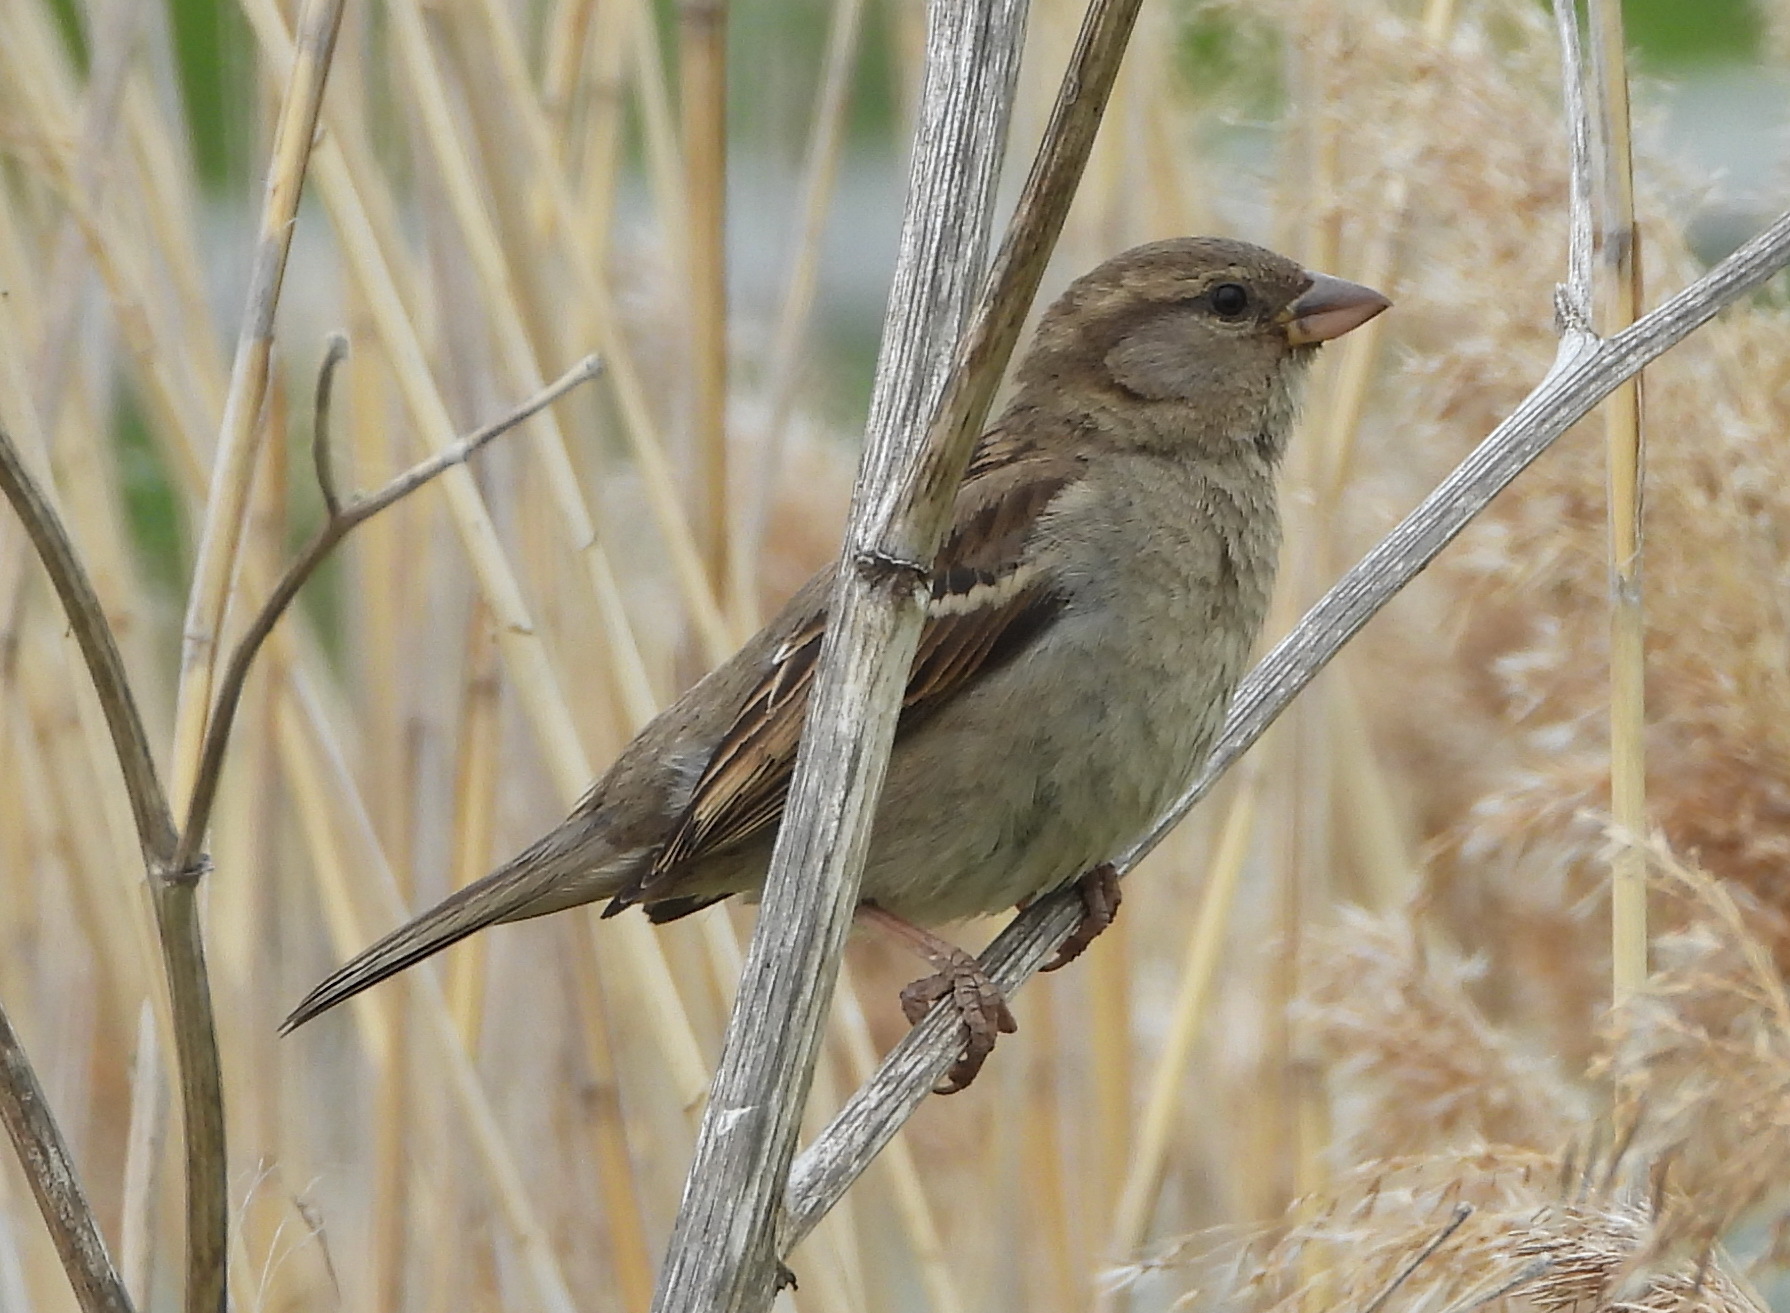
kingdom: Animalia
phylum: Chordata
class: Aves
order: Passeriformes
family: Passeridae
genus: Passer
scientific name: Passer domesticus
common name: House sparrow
